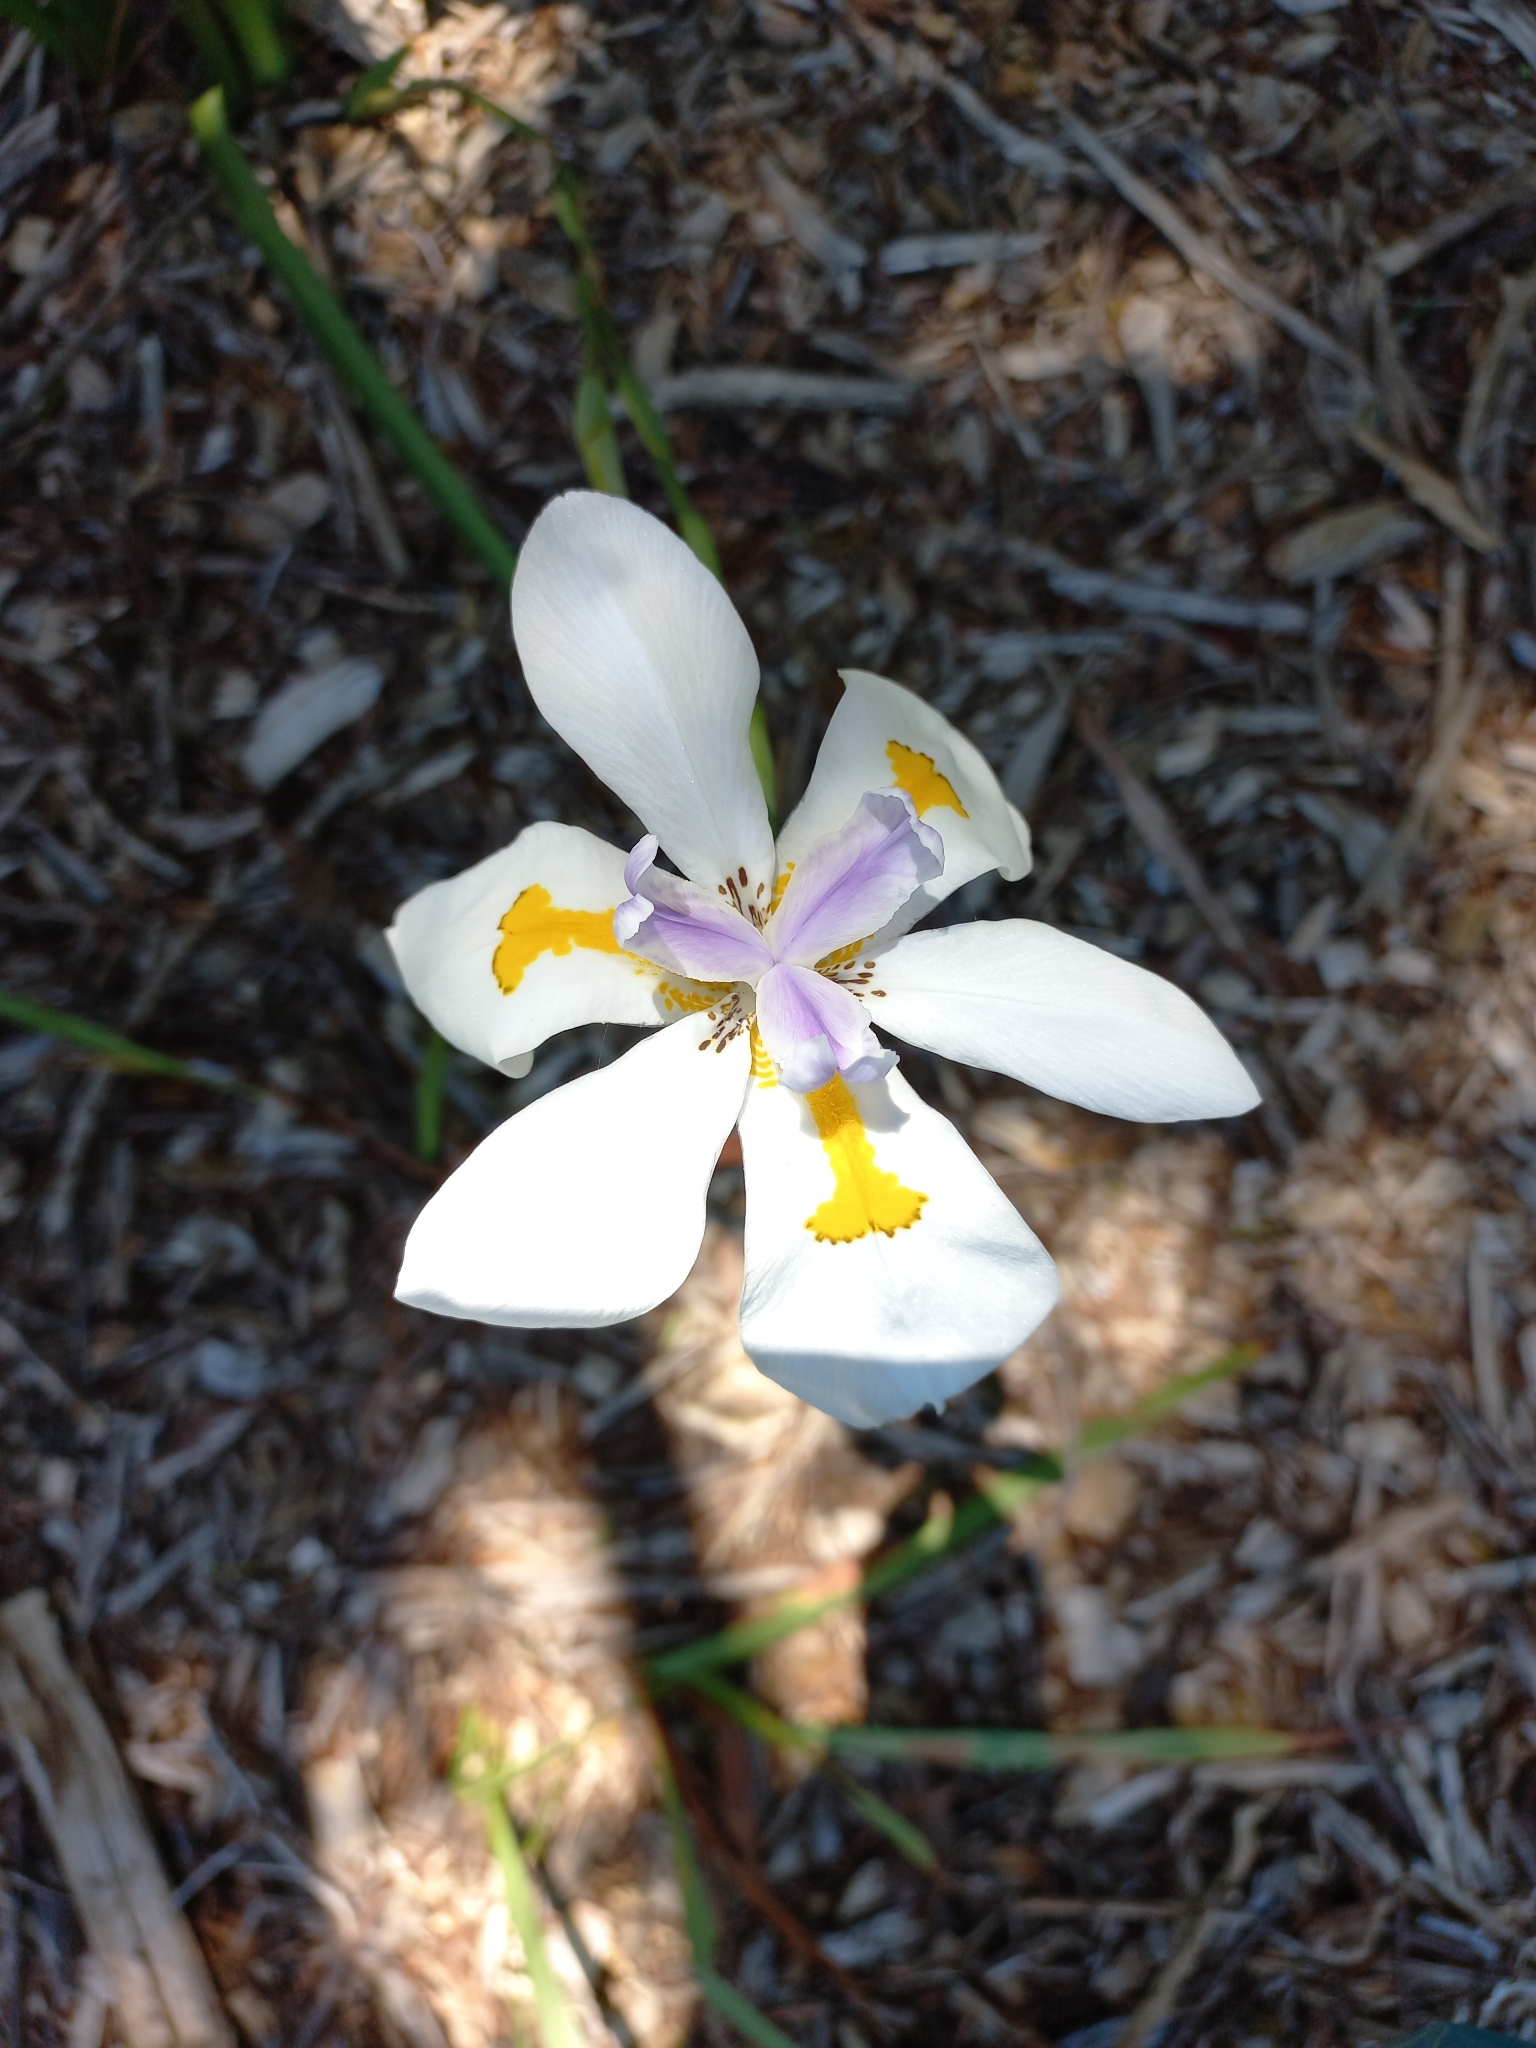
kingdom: Plantae
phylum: Tracheophyta
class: Liliopsida
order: Asparagales
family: Iridaceae
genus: Dietes
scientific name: Dietes grandiflora
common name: Wild iris
